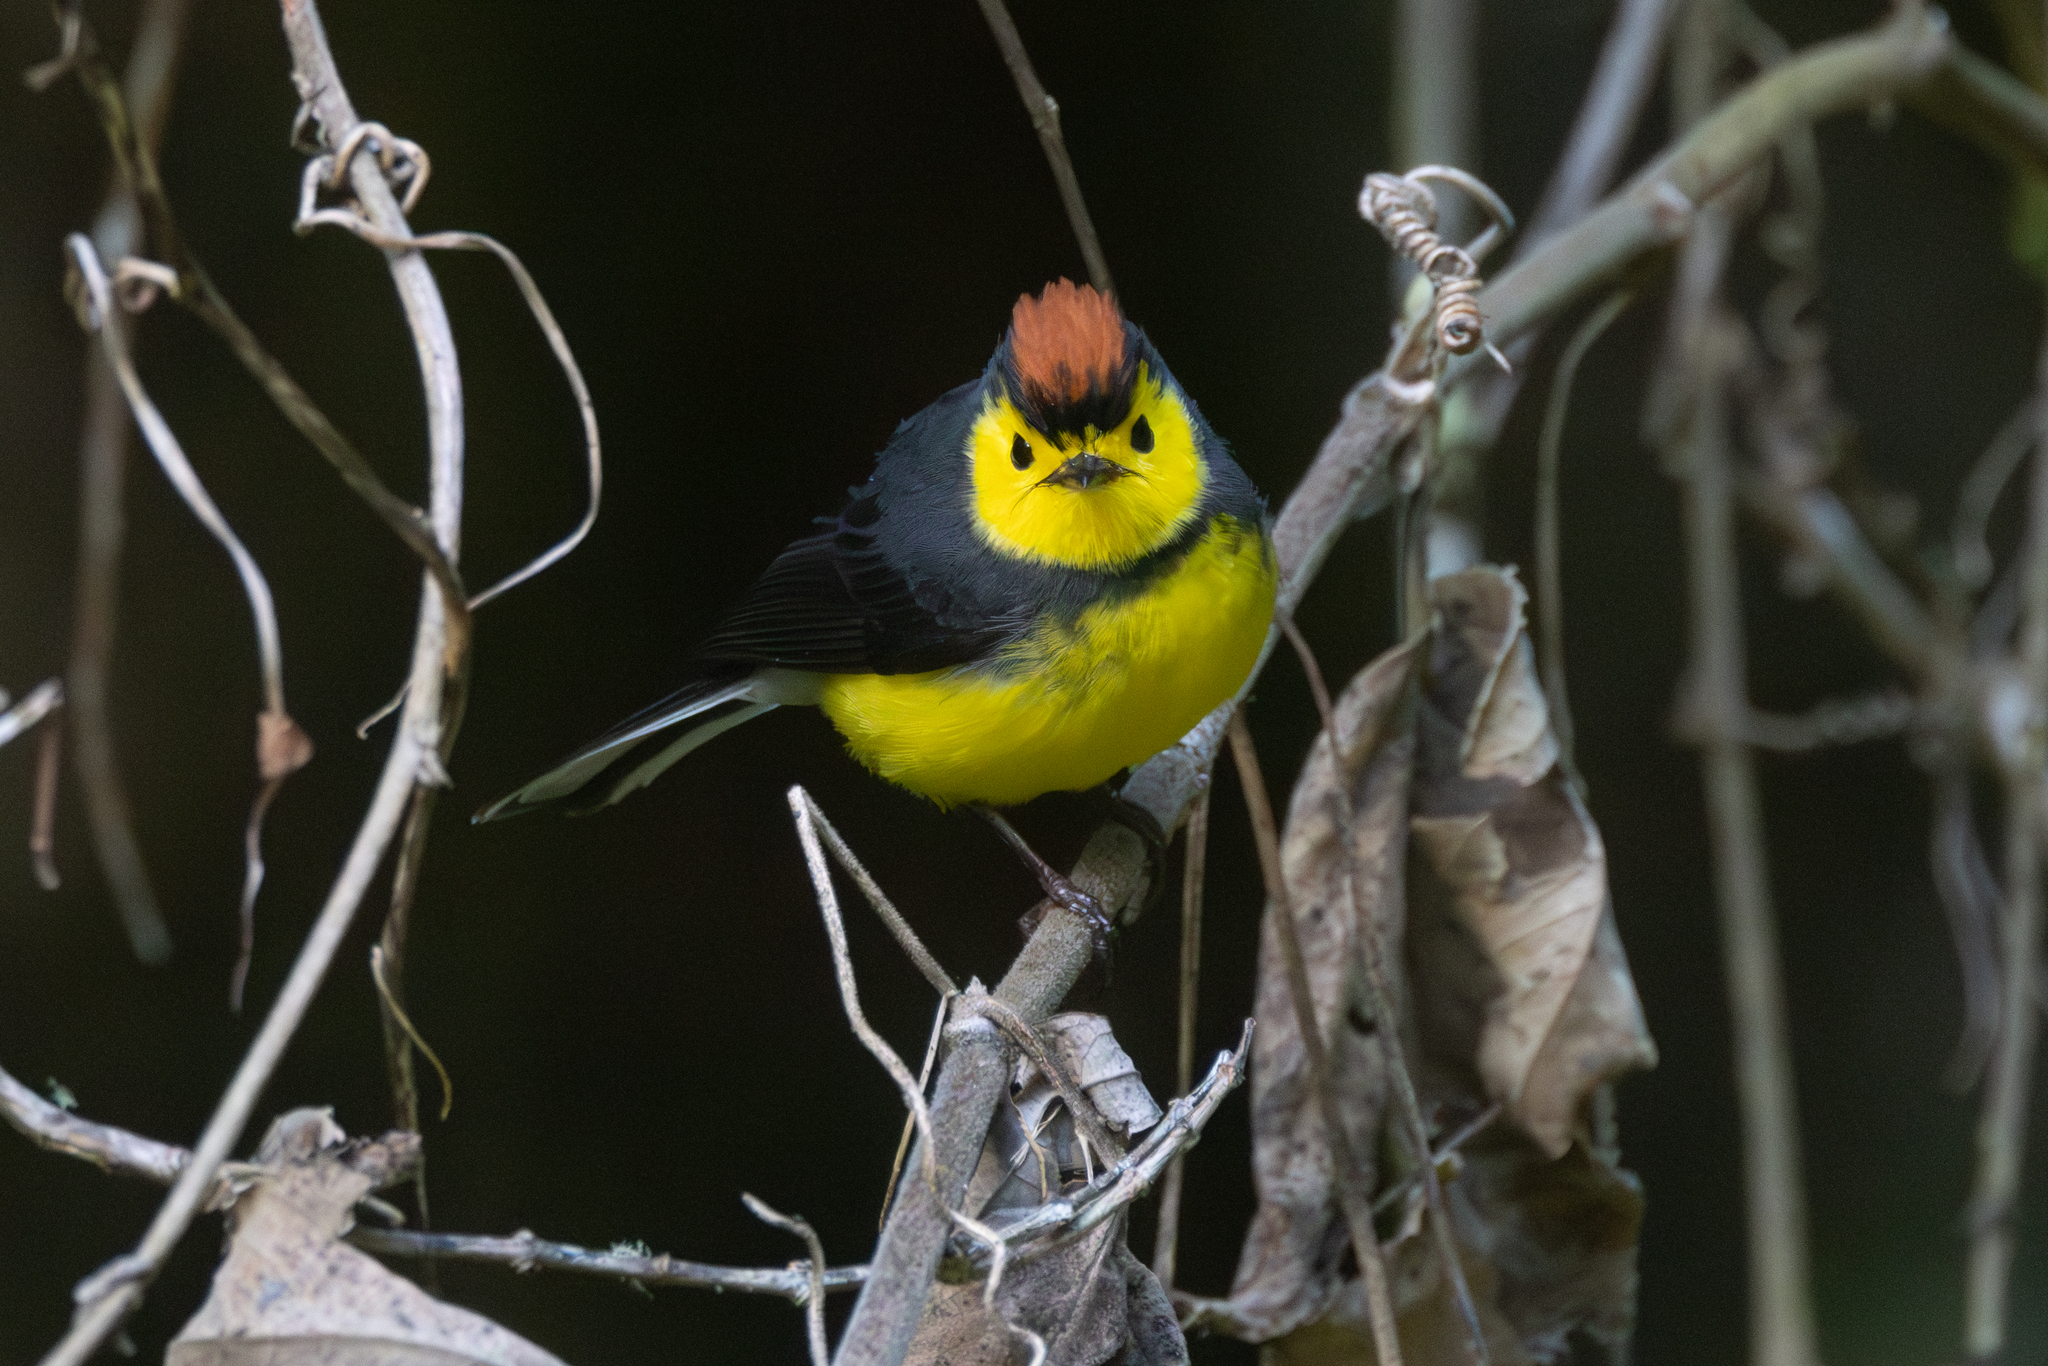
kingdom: Animalia
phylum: Chordata
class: Aves
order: Passeriformes
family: Parulidae
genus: Myioborus
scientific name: Myioborus torquatus
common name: Collared whitestart
